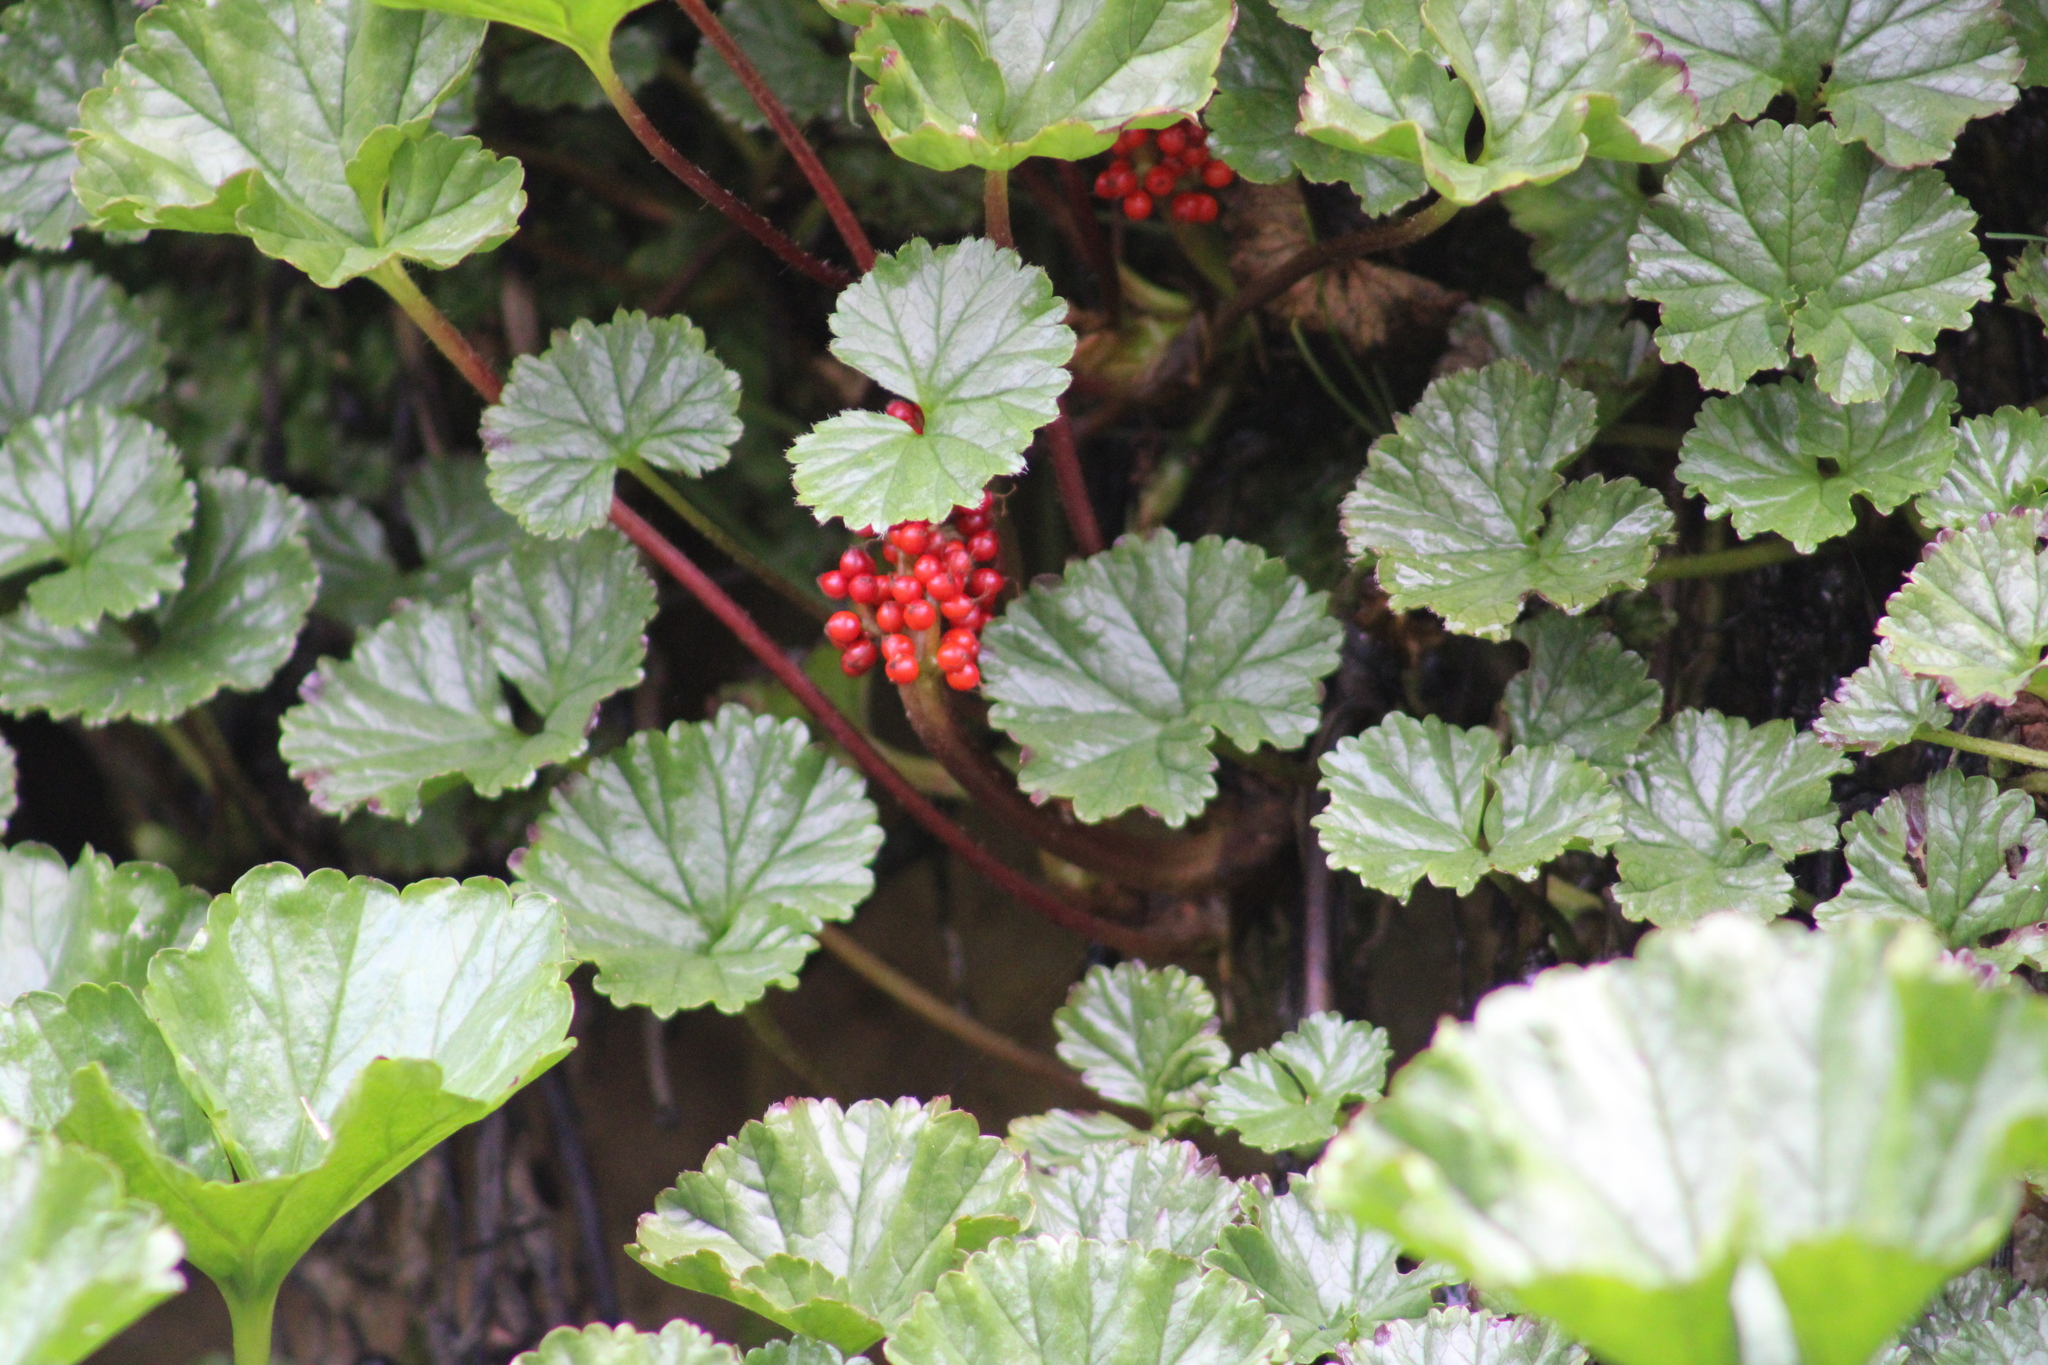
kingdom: Plantae
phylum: Tracheophyta
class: Magnoliopsida
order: Gunnerales
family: Gunneraceae
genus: Gunnera
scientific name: Gunnera magellanica
